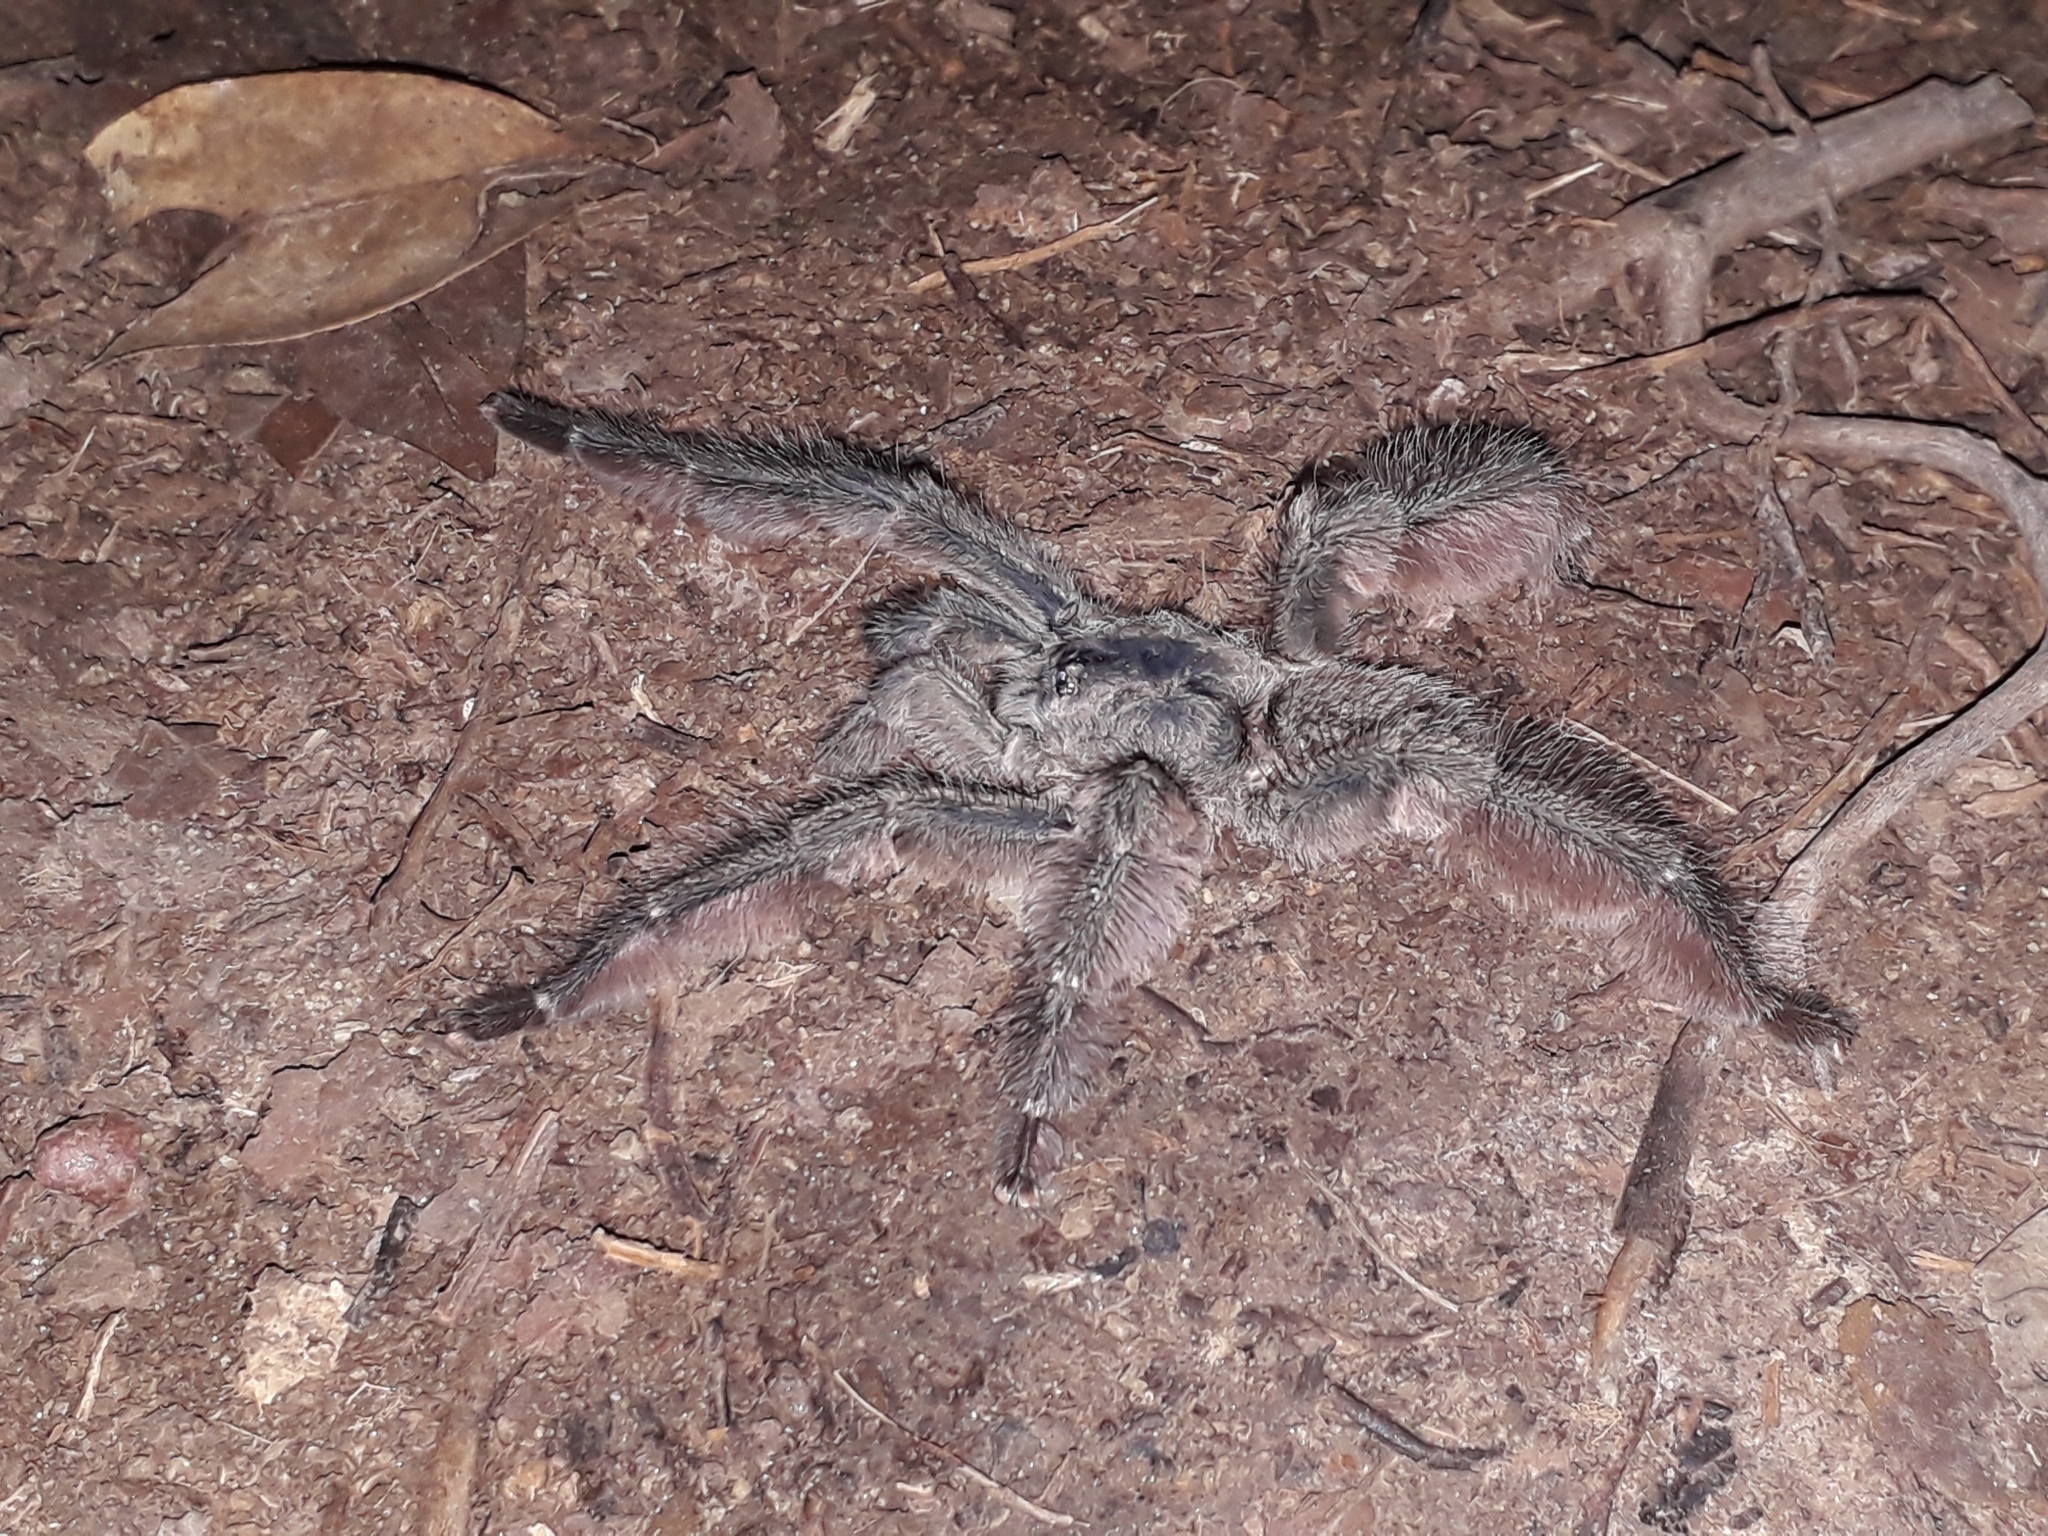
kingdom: Animalia
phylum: Arthropoda
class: Arachnida
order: Araneae
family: Theraphosidae
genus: Tapinauchenius
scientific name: Tapinauchenius plumipes
